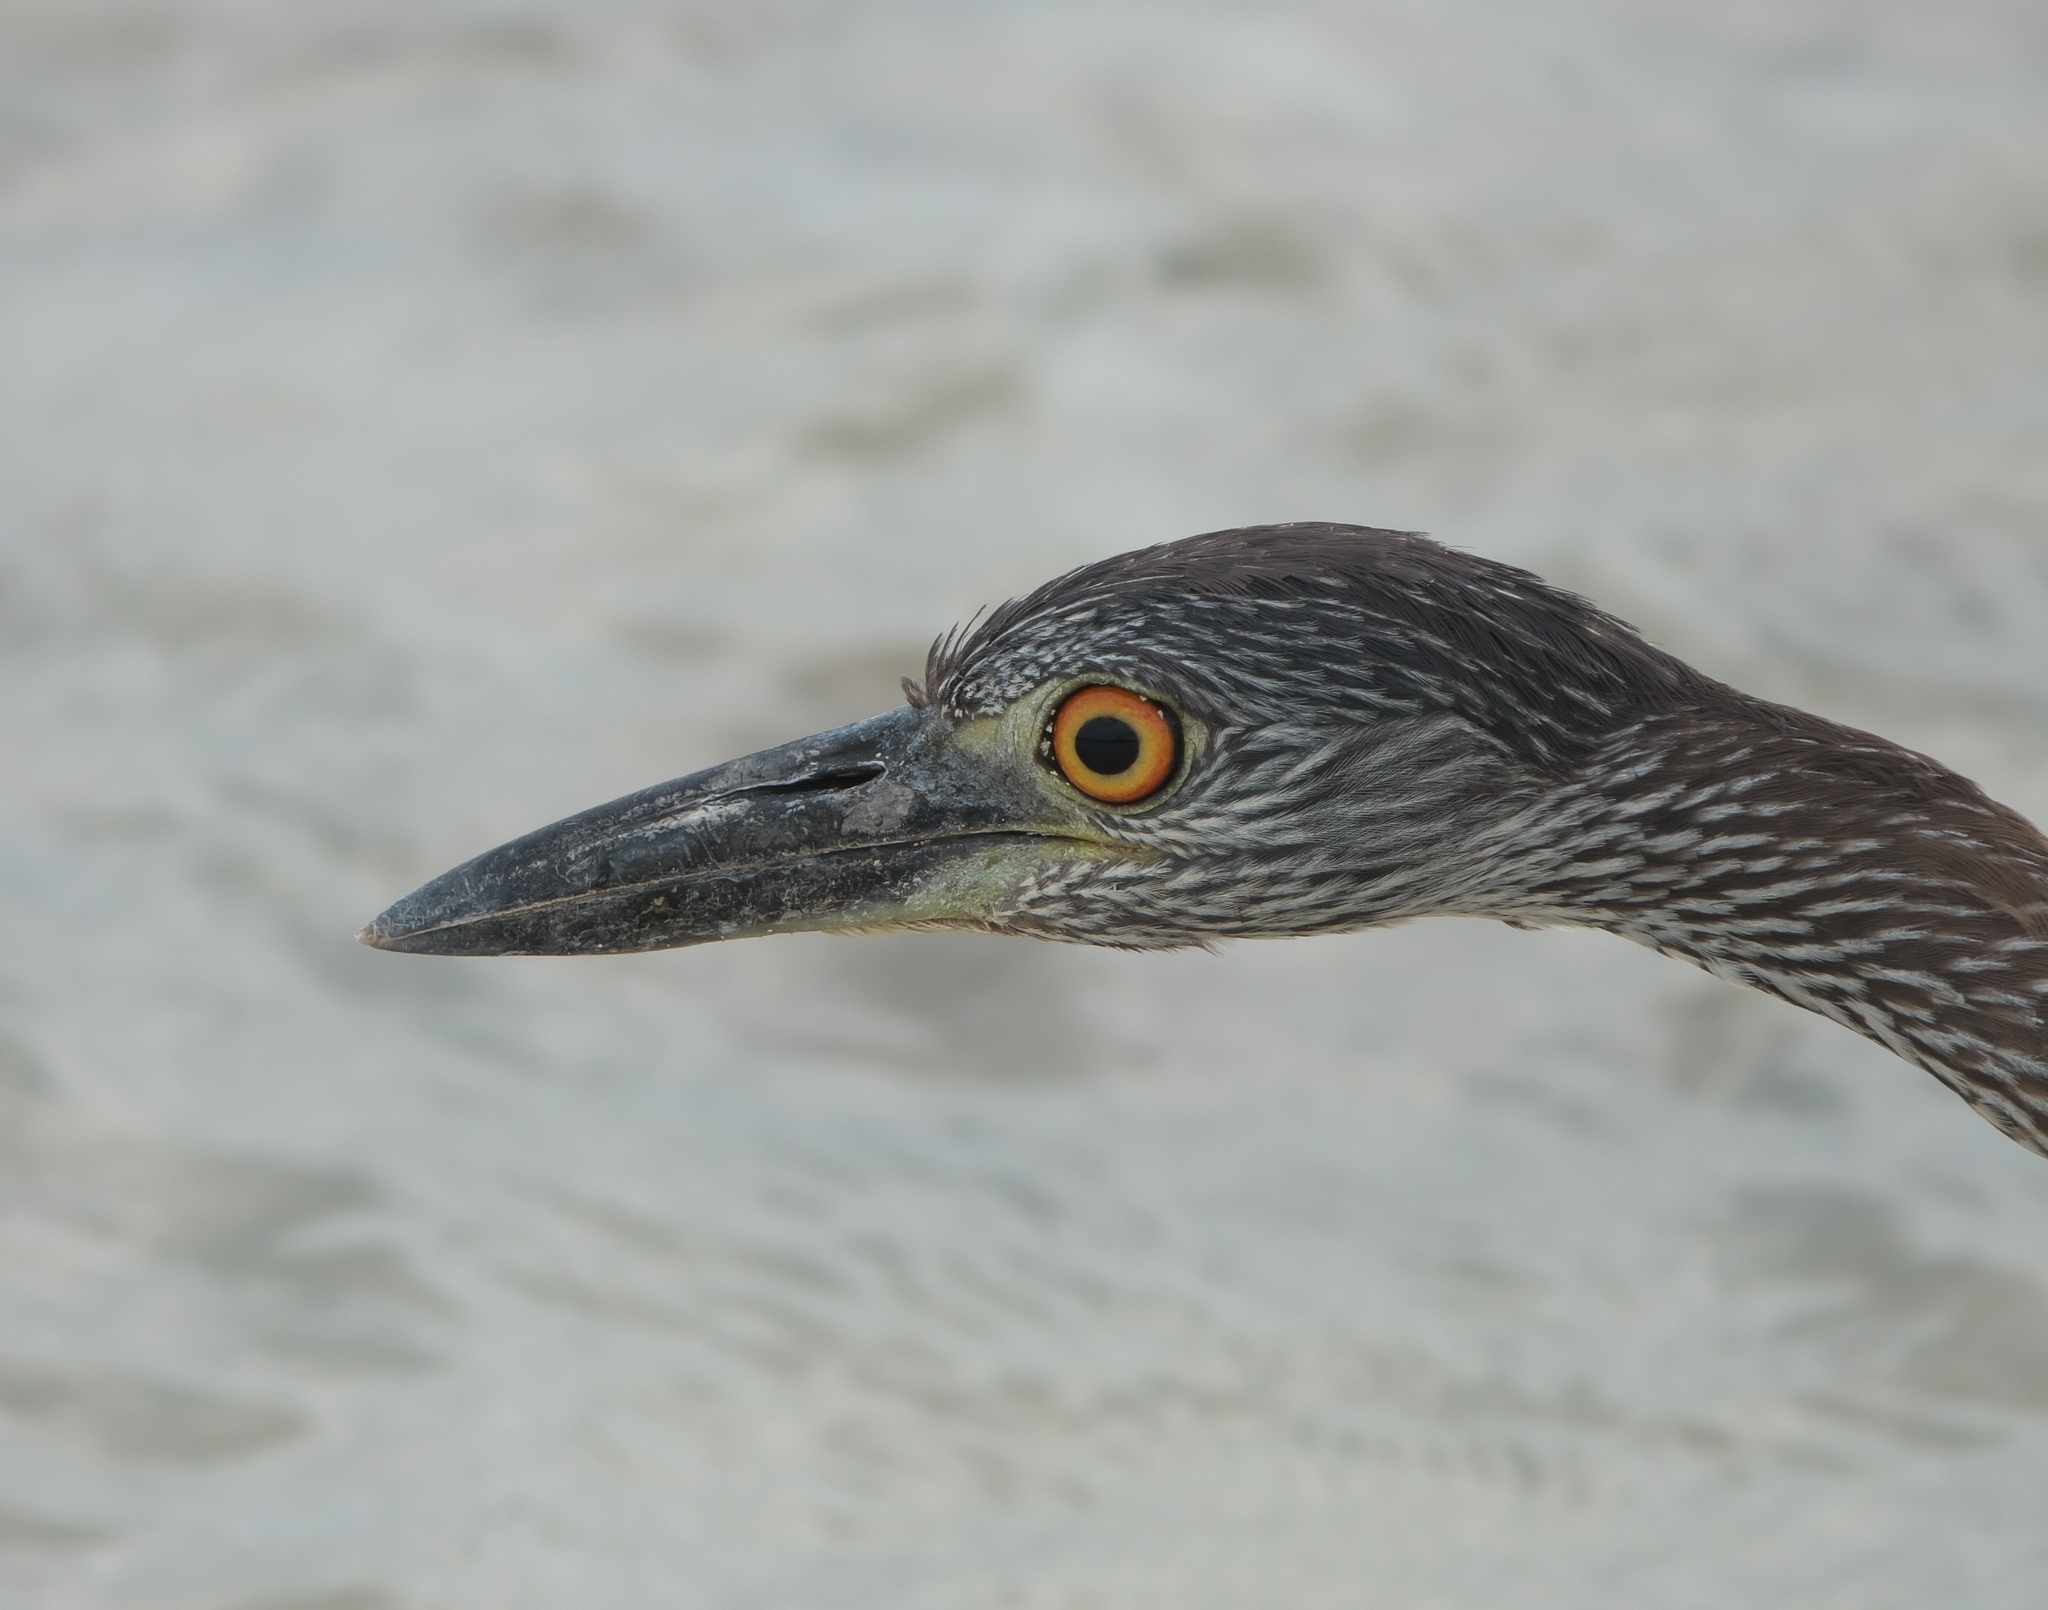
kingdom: Animalia
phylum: Chordata
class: Aves
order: Pelecaniformes
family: Ardeidae
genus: Nyctanassa
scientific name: Nyctanassa violacea
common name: Yellow-crowned night heron
